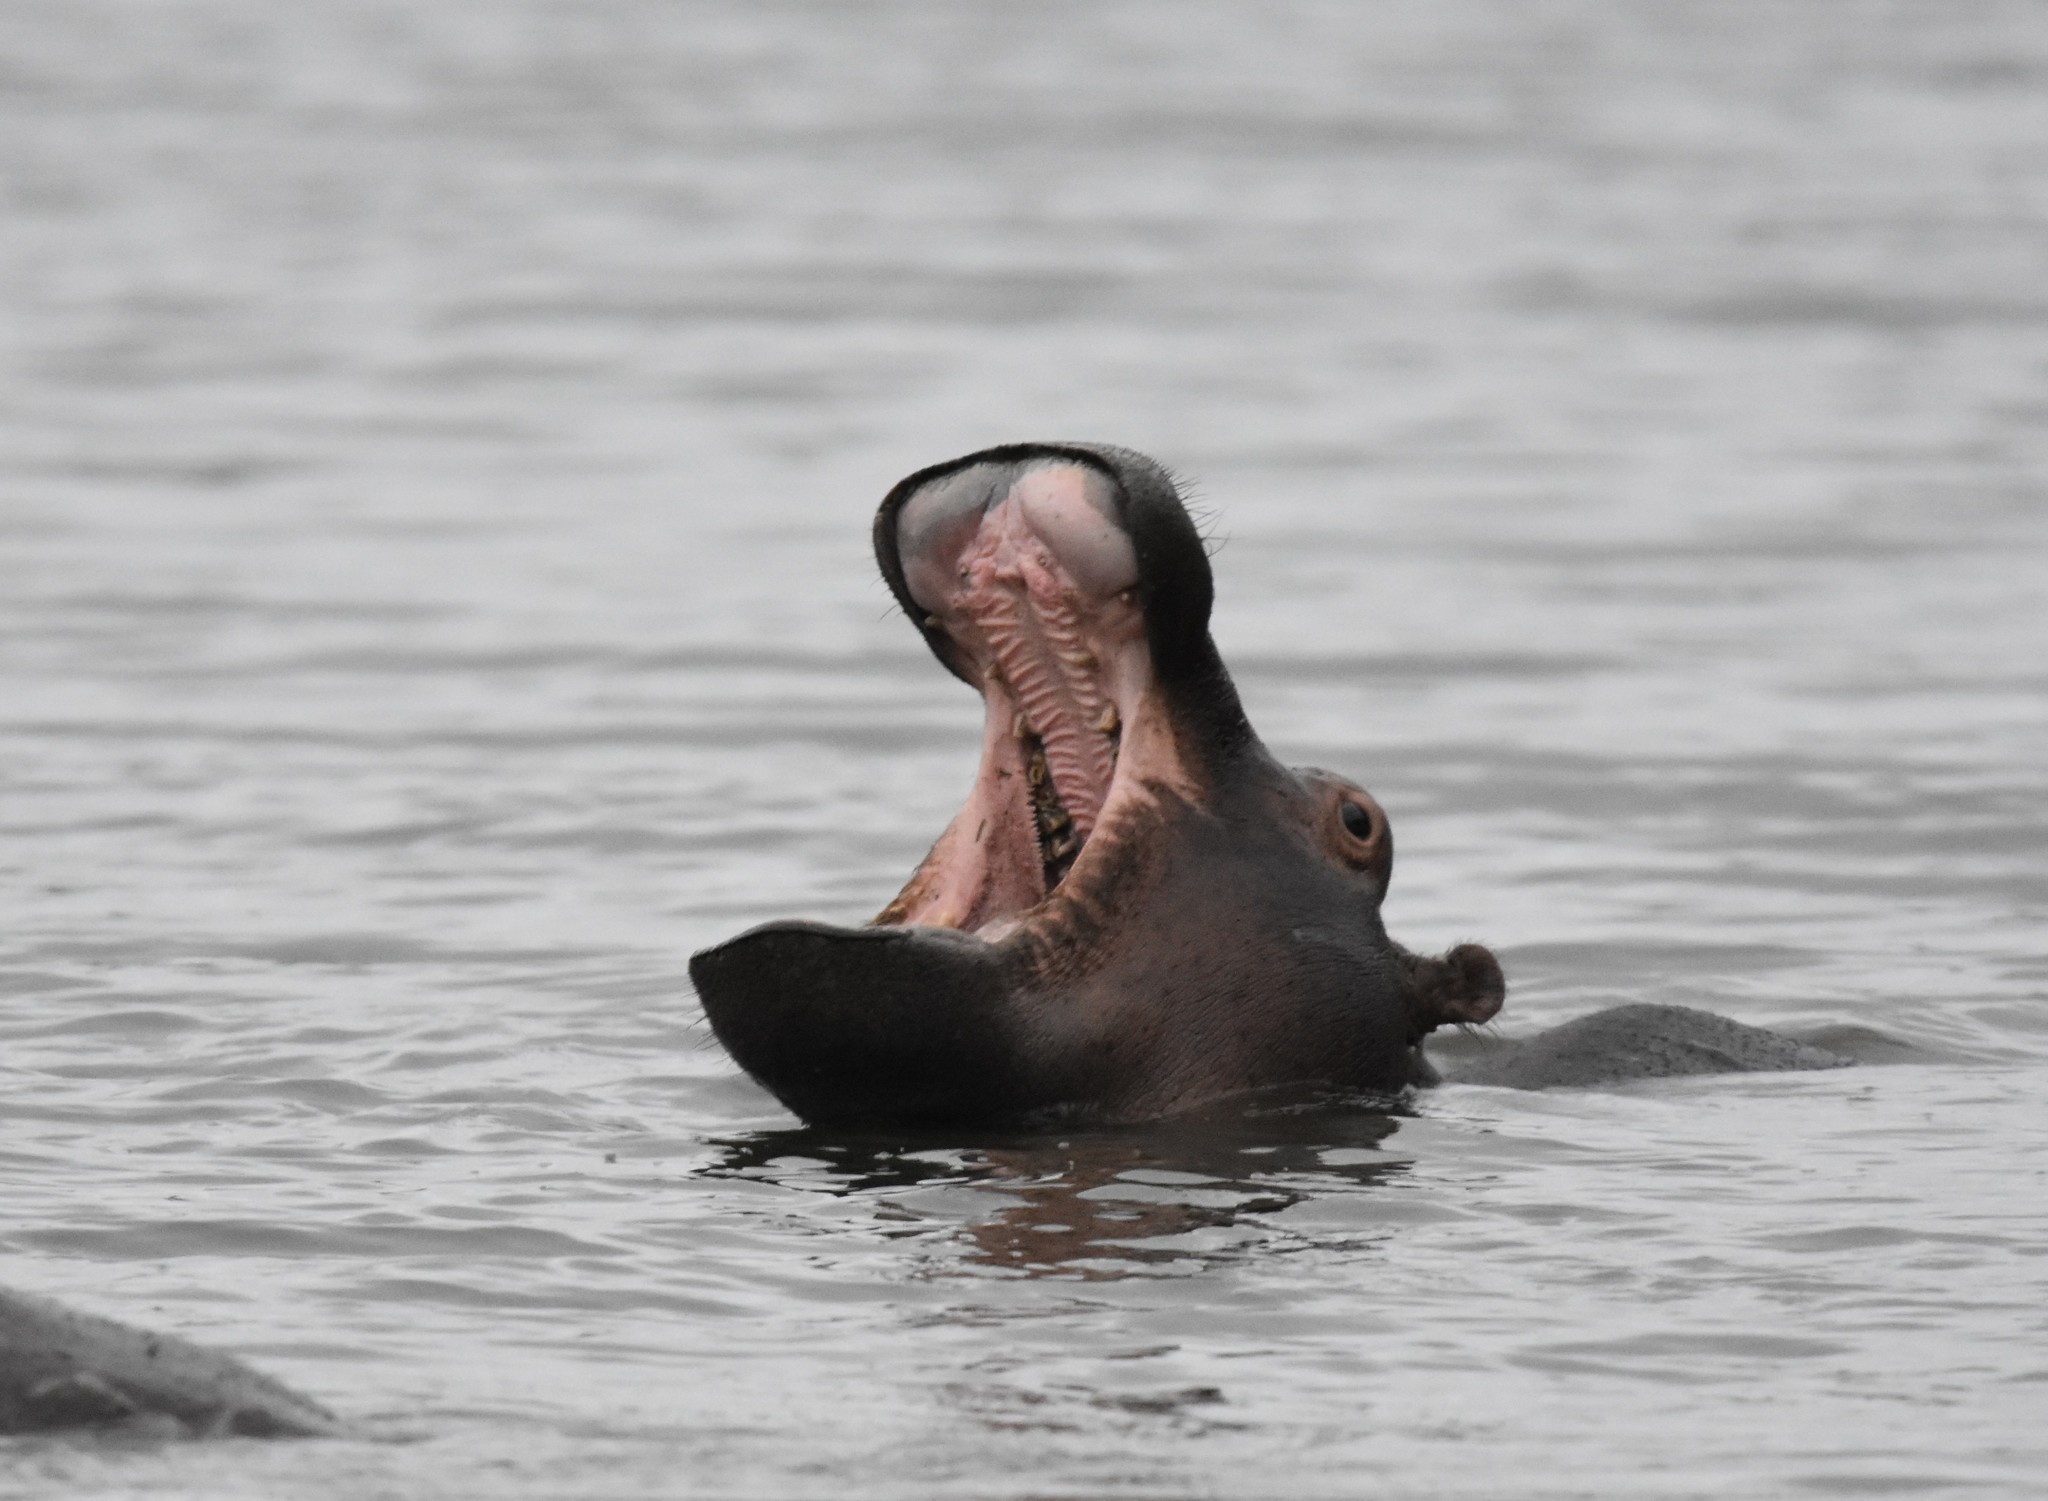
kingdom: Animalia
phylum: Chordata
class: Mammalia
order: Artiodactyla
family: Hippopotamidae
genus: Hippopotamus
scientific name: Hippopotamus amphibius
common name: Common hippopotamus
